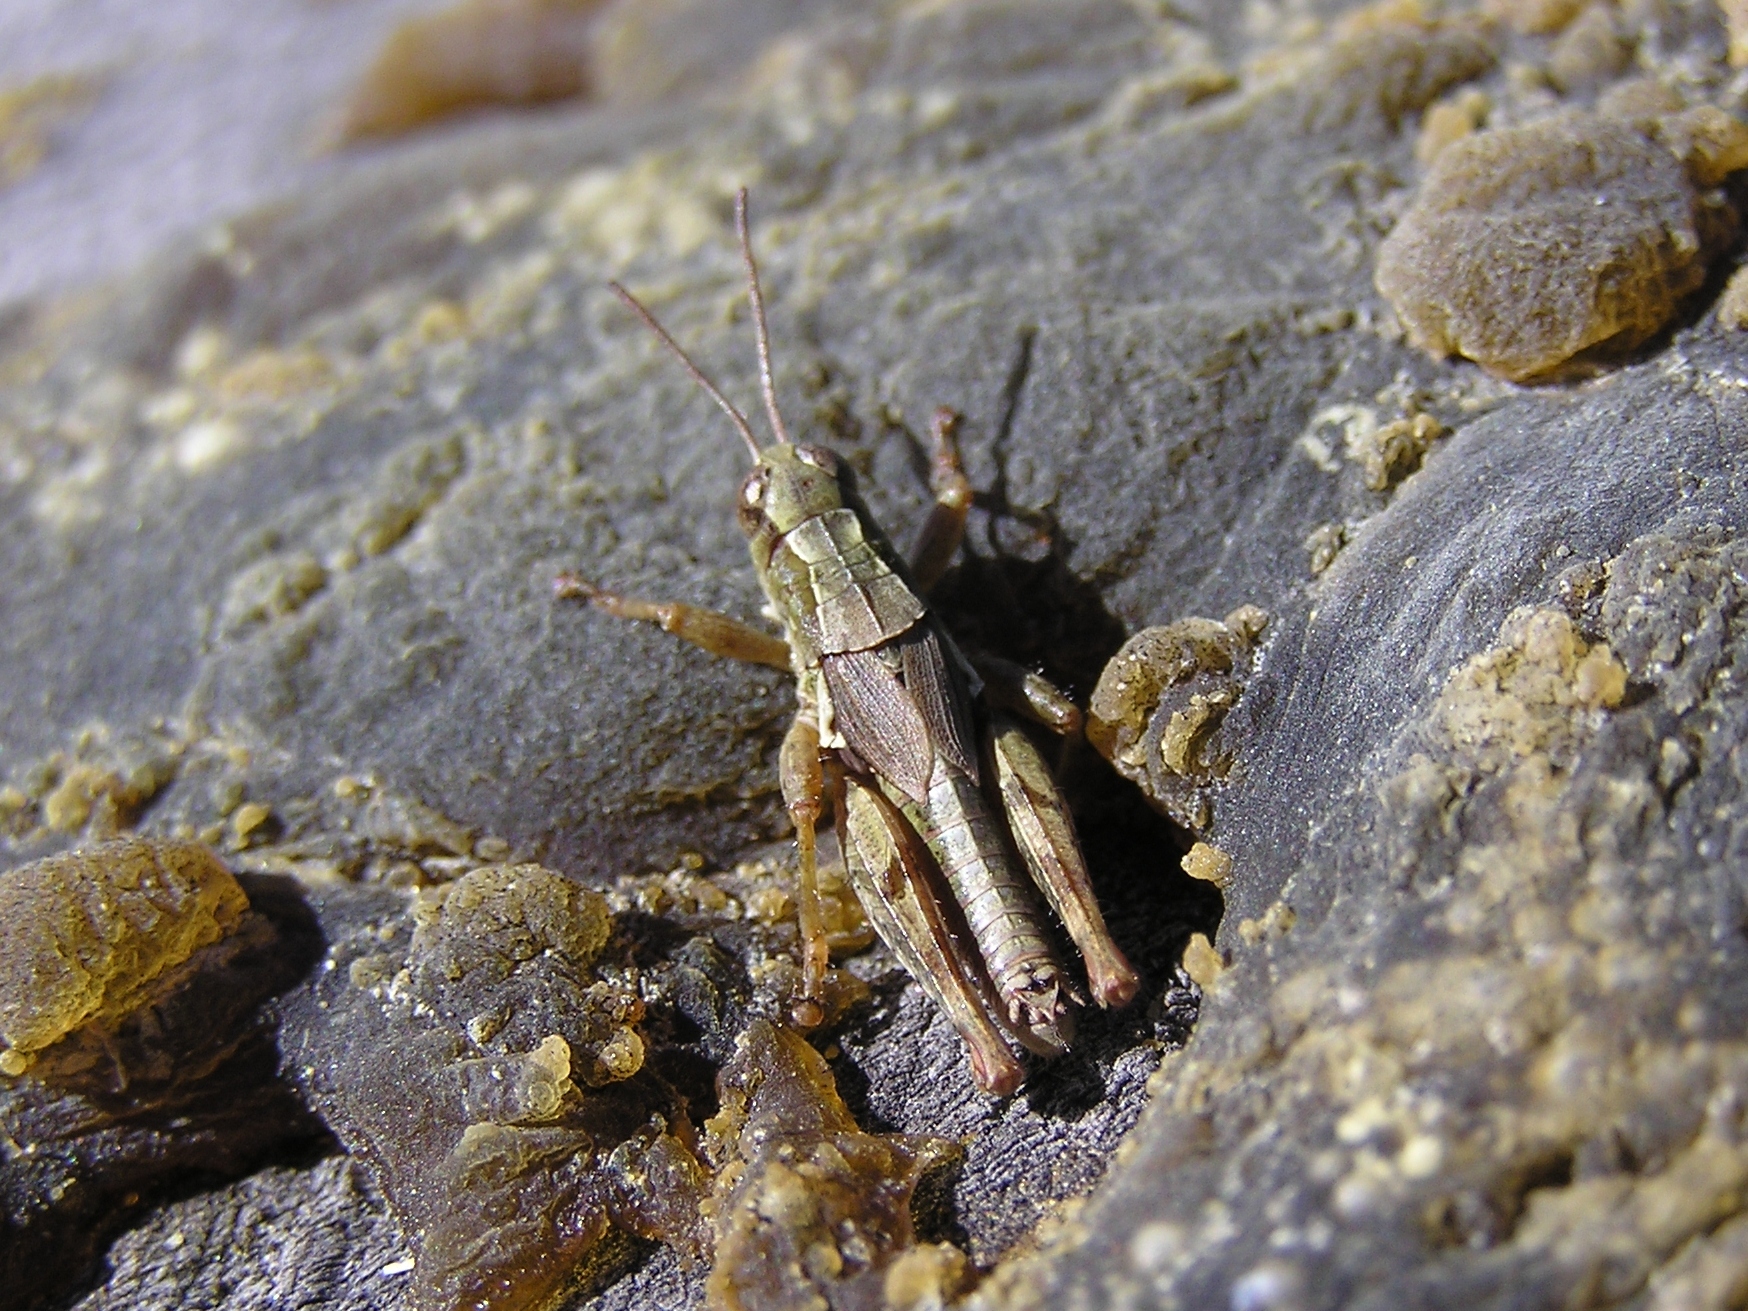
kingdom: Animalia
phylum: Arthropoda
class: Insecta
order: Orthoptera
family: Acrididae
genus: Phaulacridium
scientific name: Phaulacridium marginale
